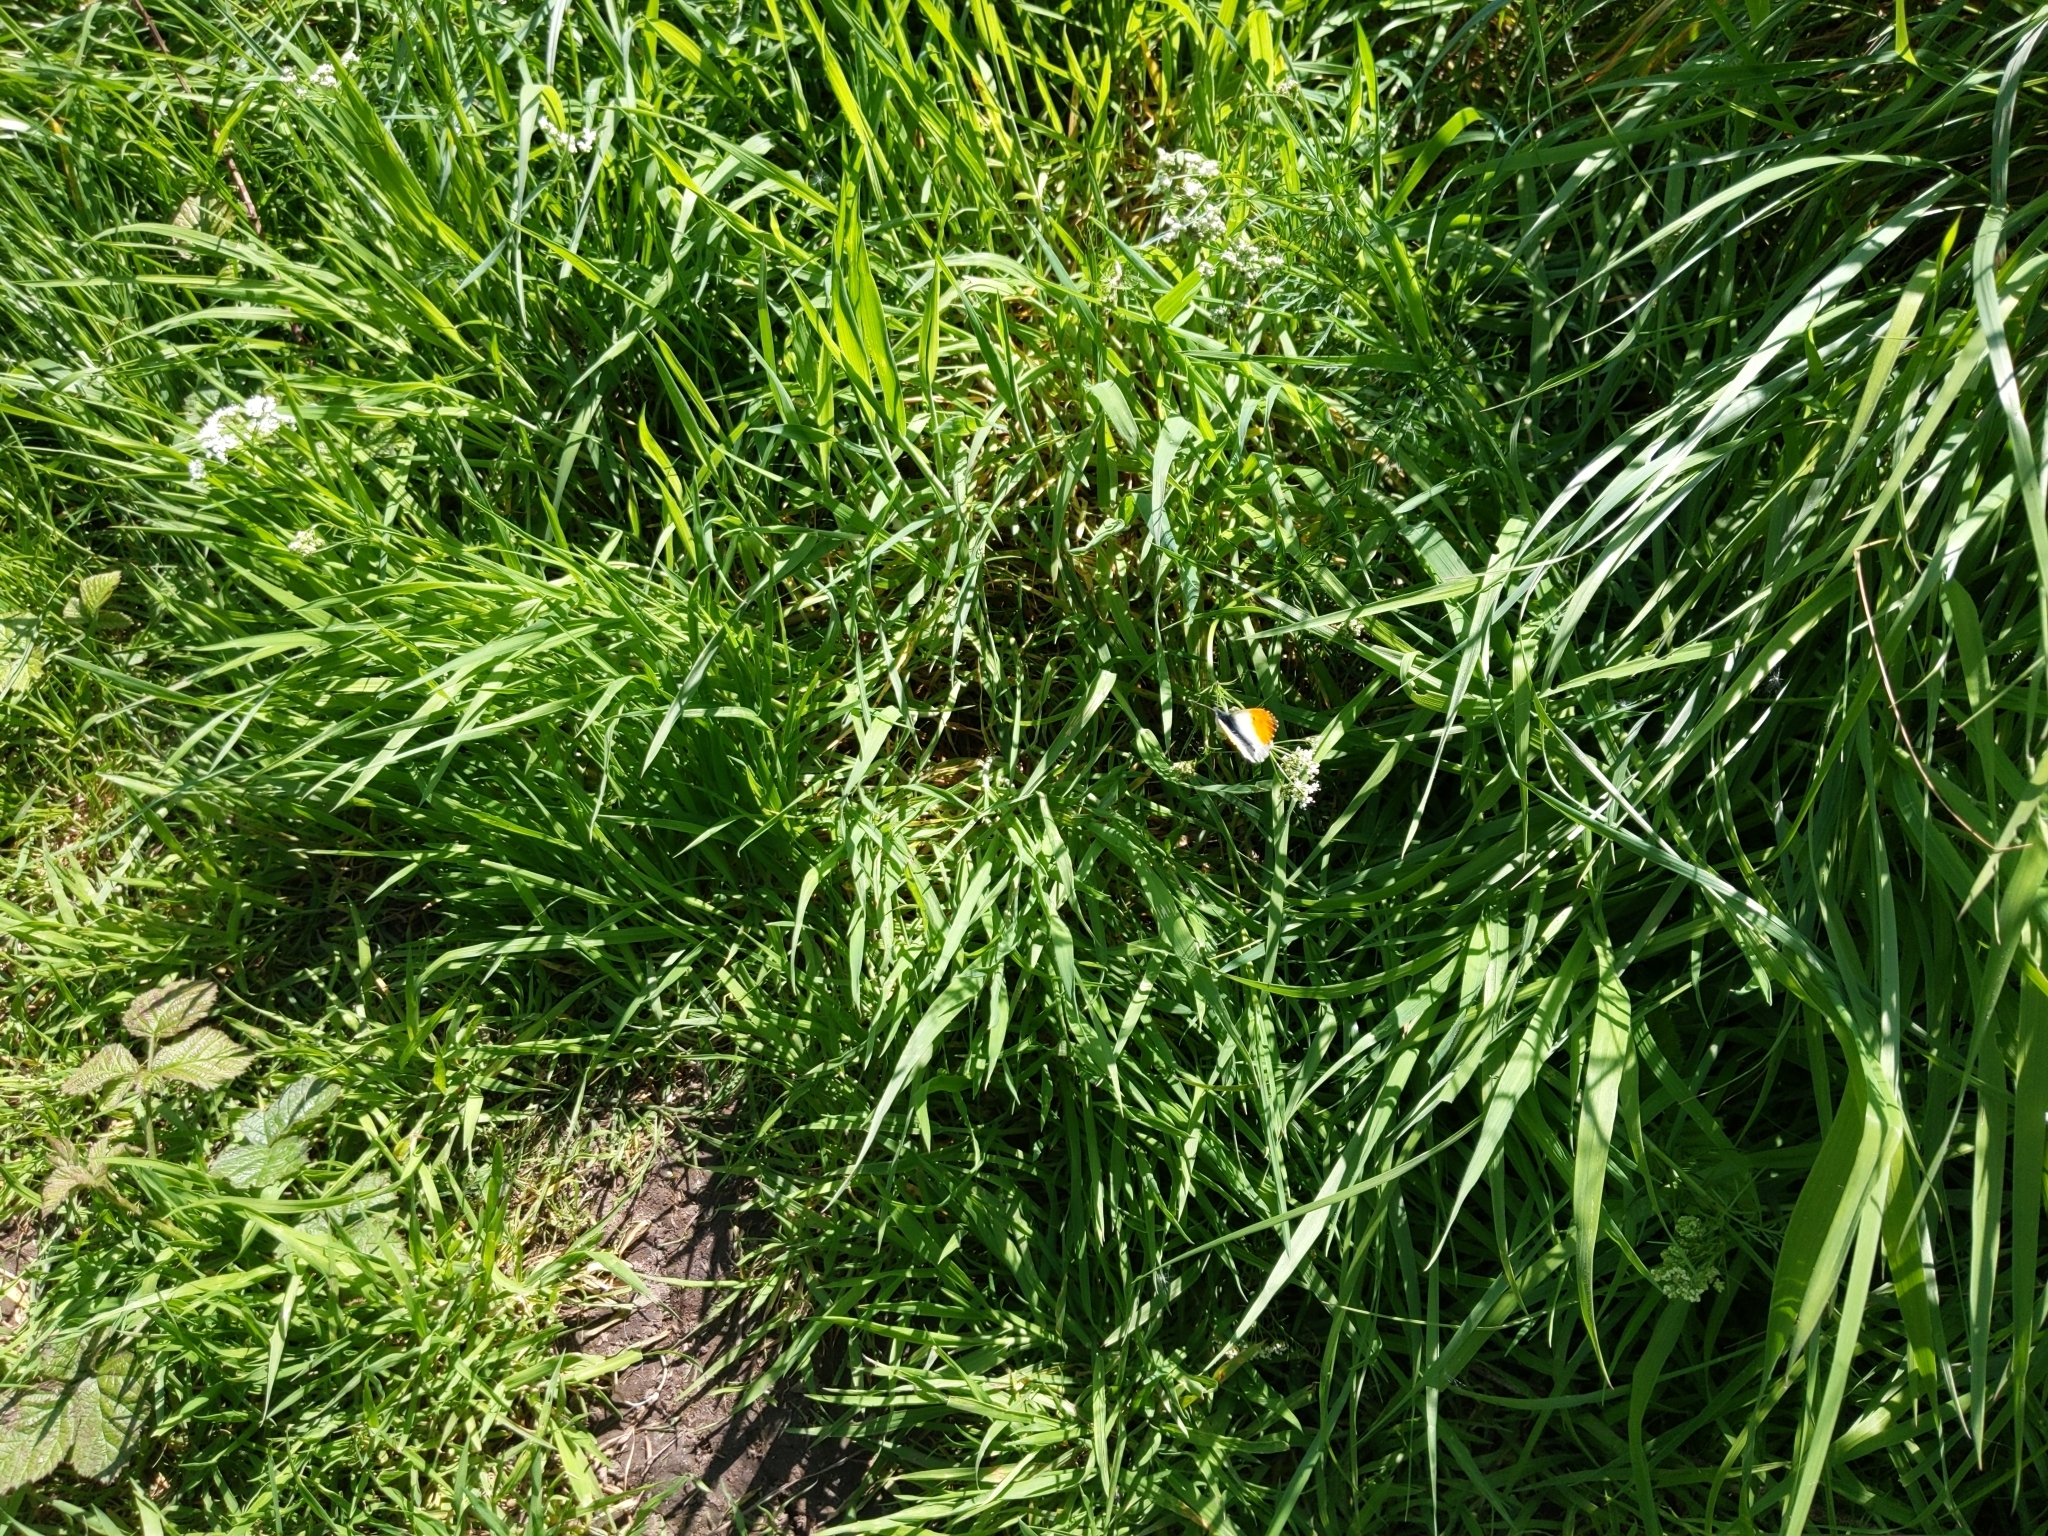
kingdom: Animalia
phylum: Arthropoda
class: Insecta
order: Lepidoptera
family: Pieridae
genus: Anthocharis
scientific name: Anthocharis cardamines
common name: Orange-tip
